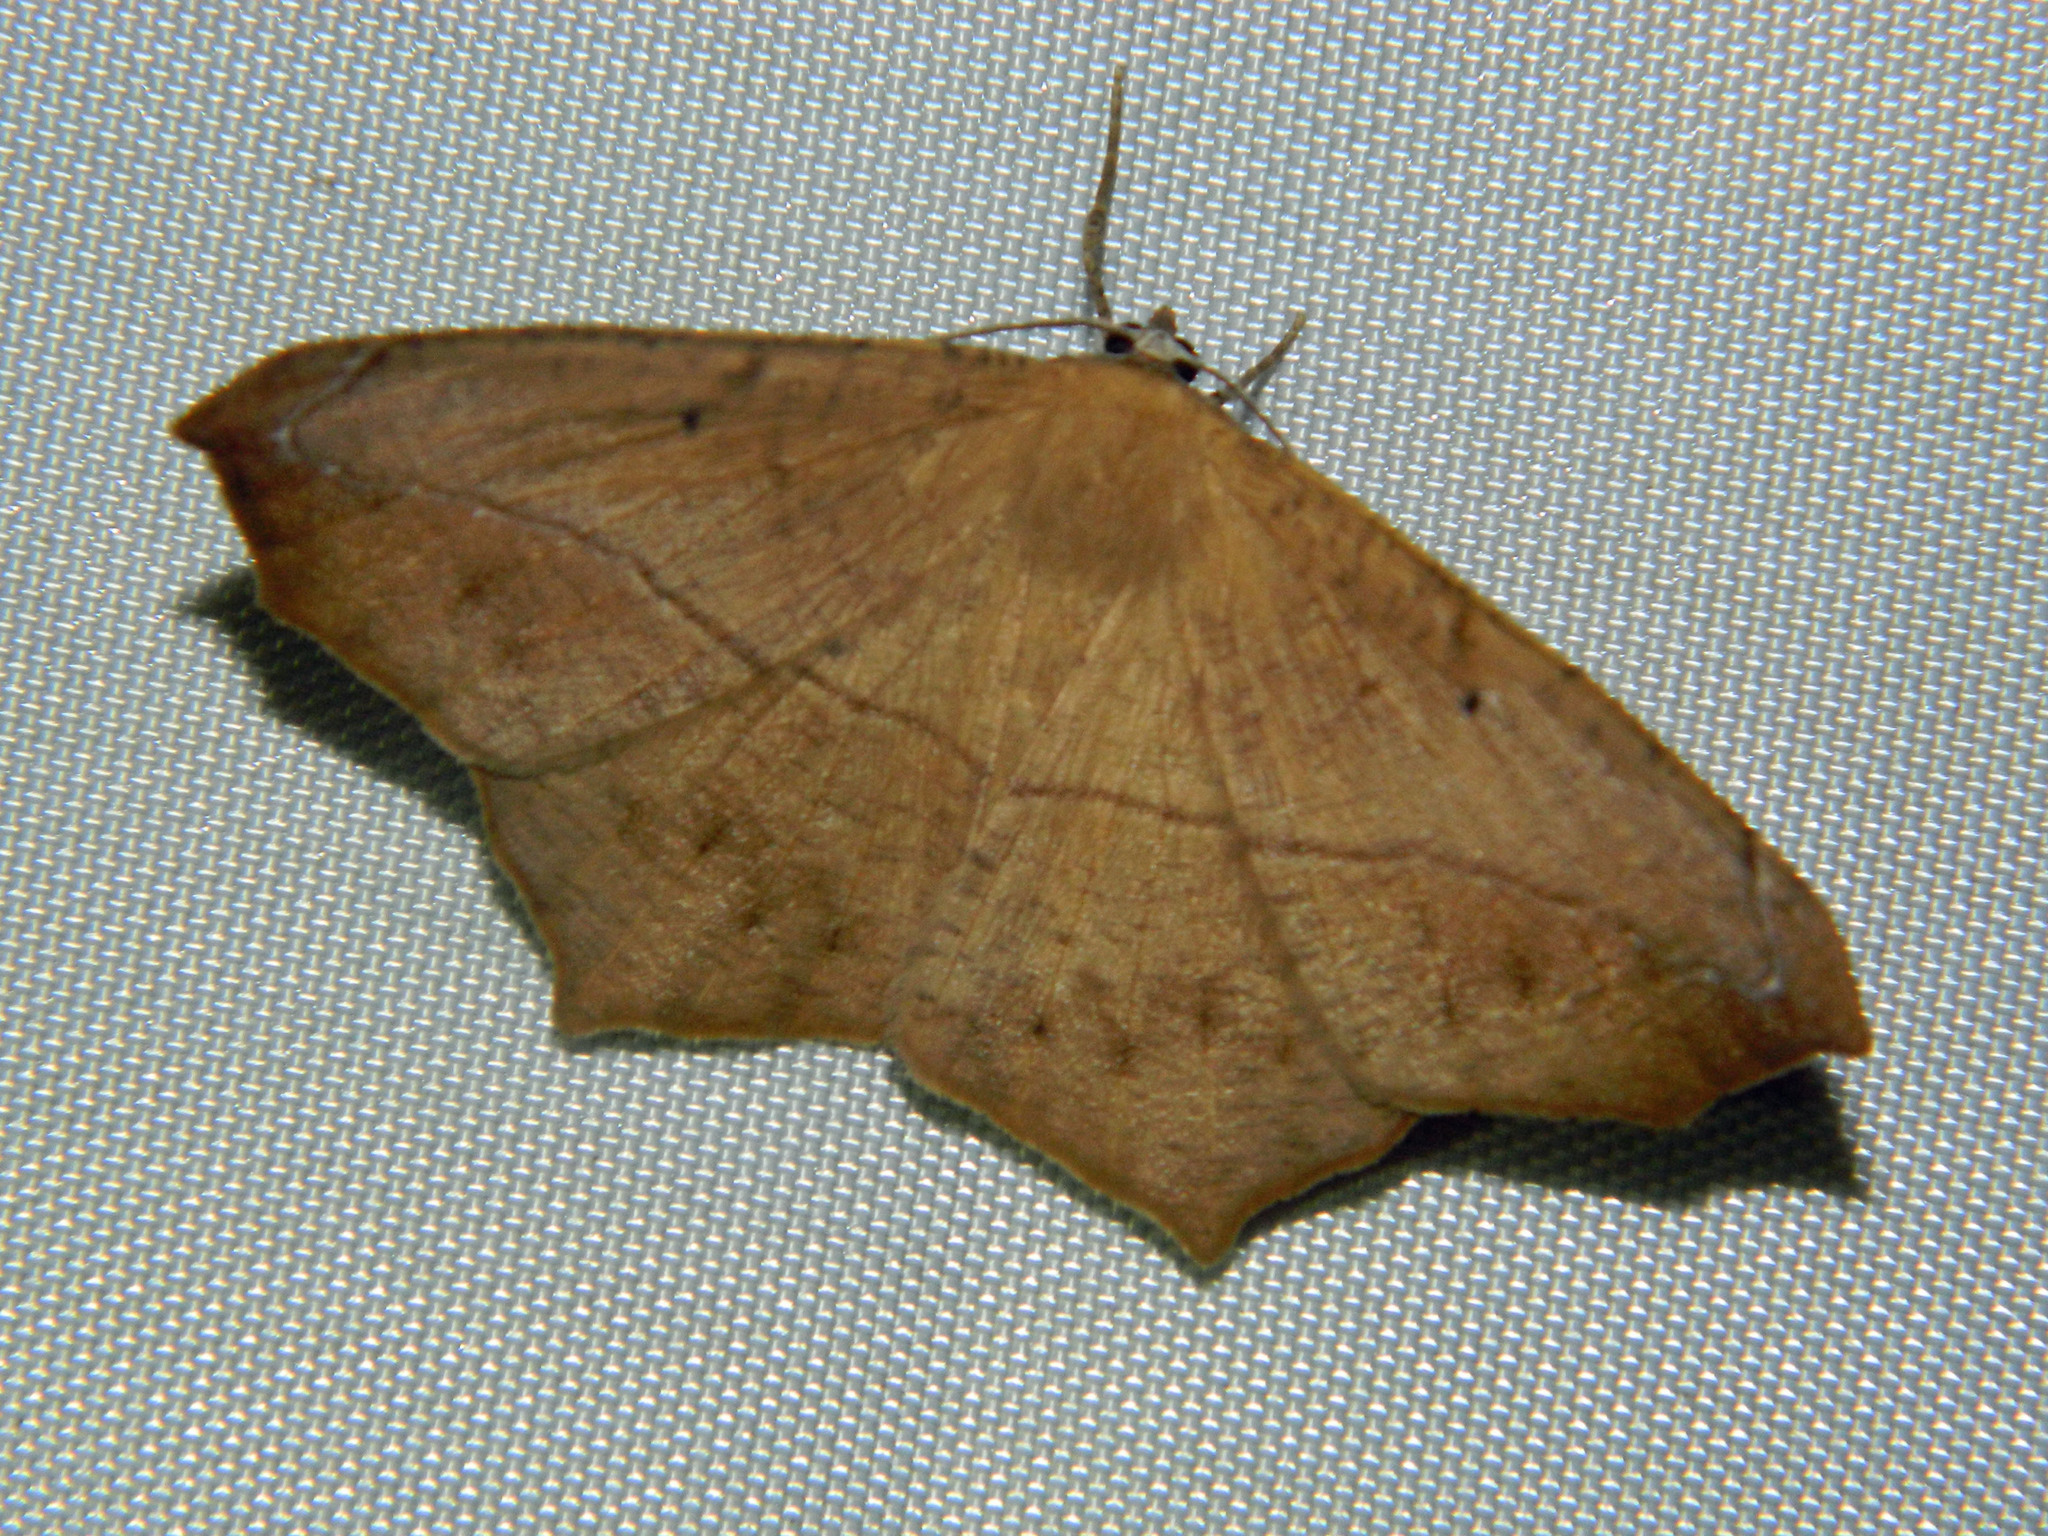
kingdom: Animalia
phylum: Arthropoda
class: Insecta
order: Lepidoptera
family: Geometridae
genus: Prochoerodes
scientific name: Prochoerodes lineola
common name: Large maple spanworm
